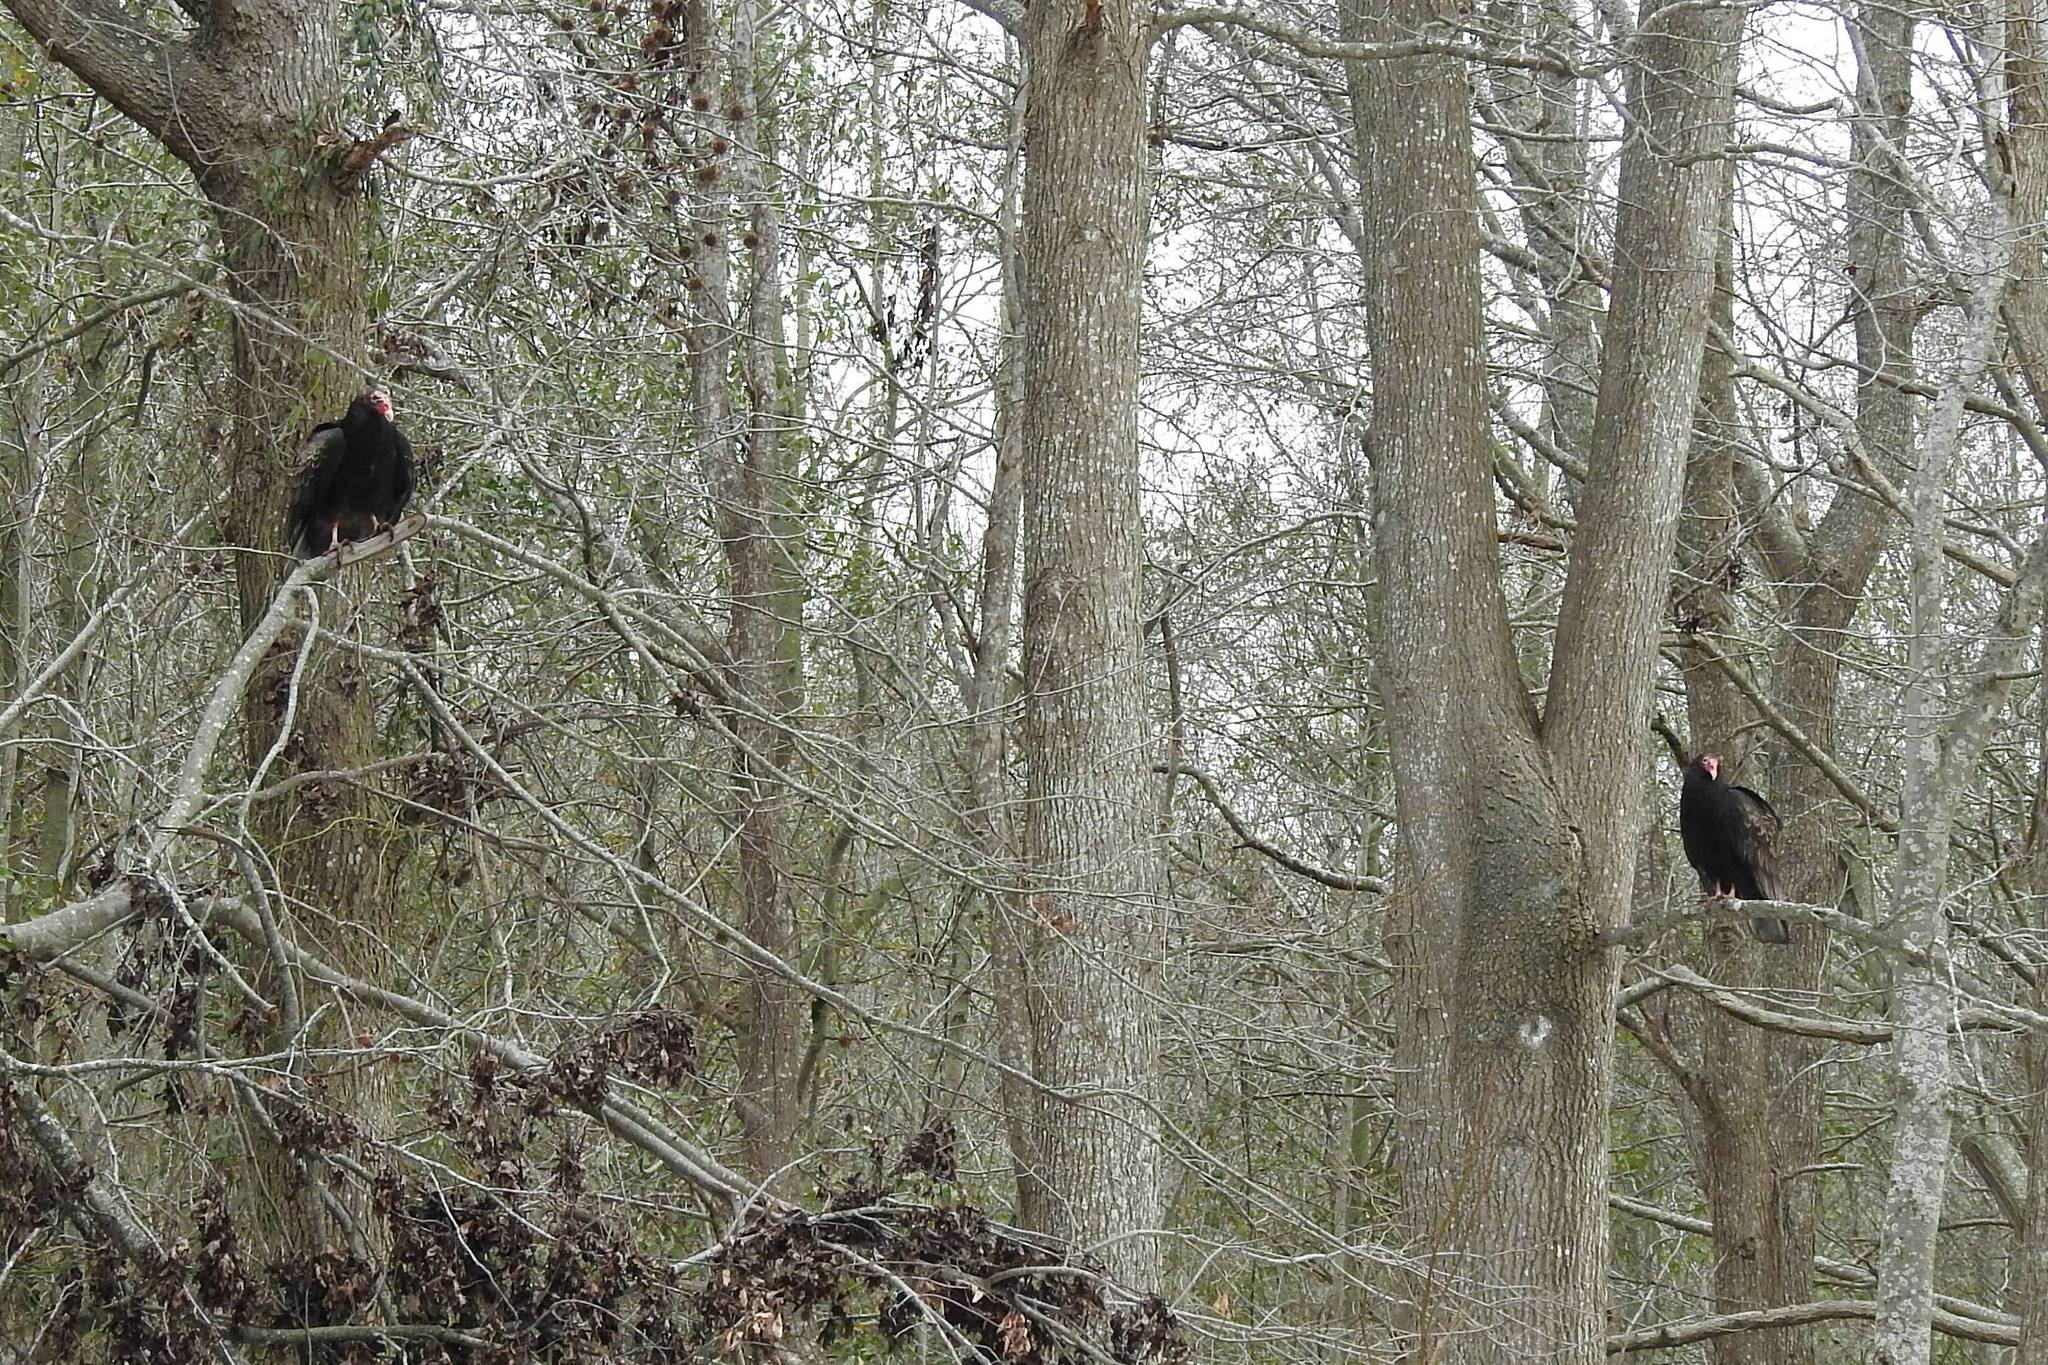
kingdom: Animalia
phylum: Chordata
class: Aves
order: Accipitriformes
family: Cathartidae
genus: Cathartes
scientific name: Cathartes aura
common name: Turkey vulture
